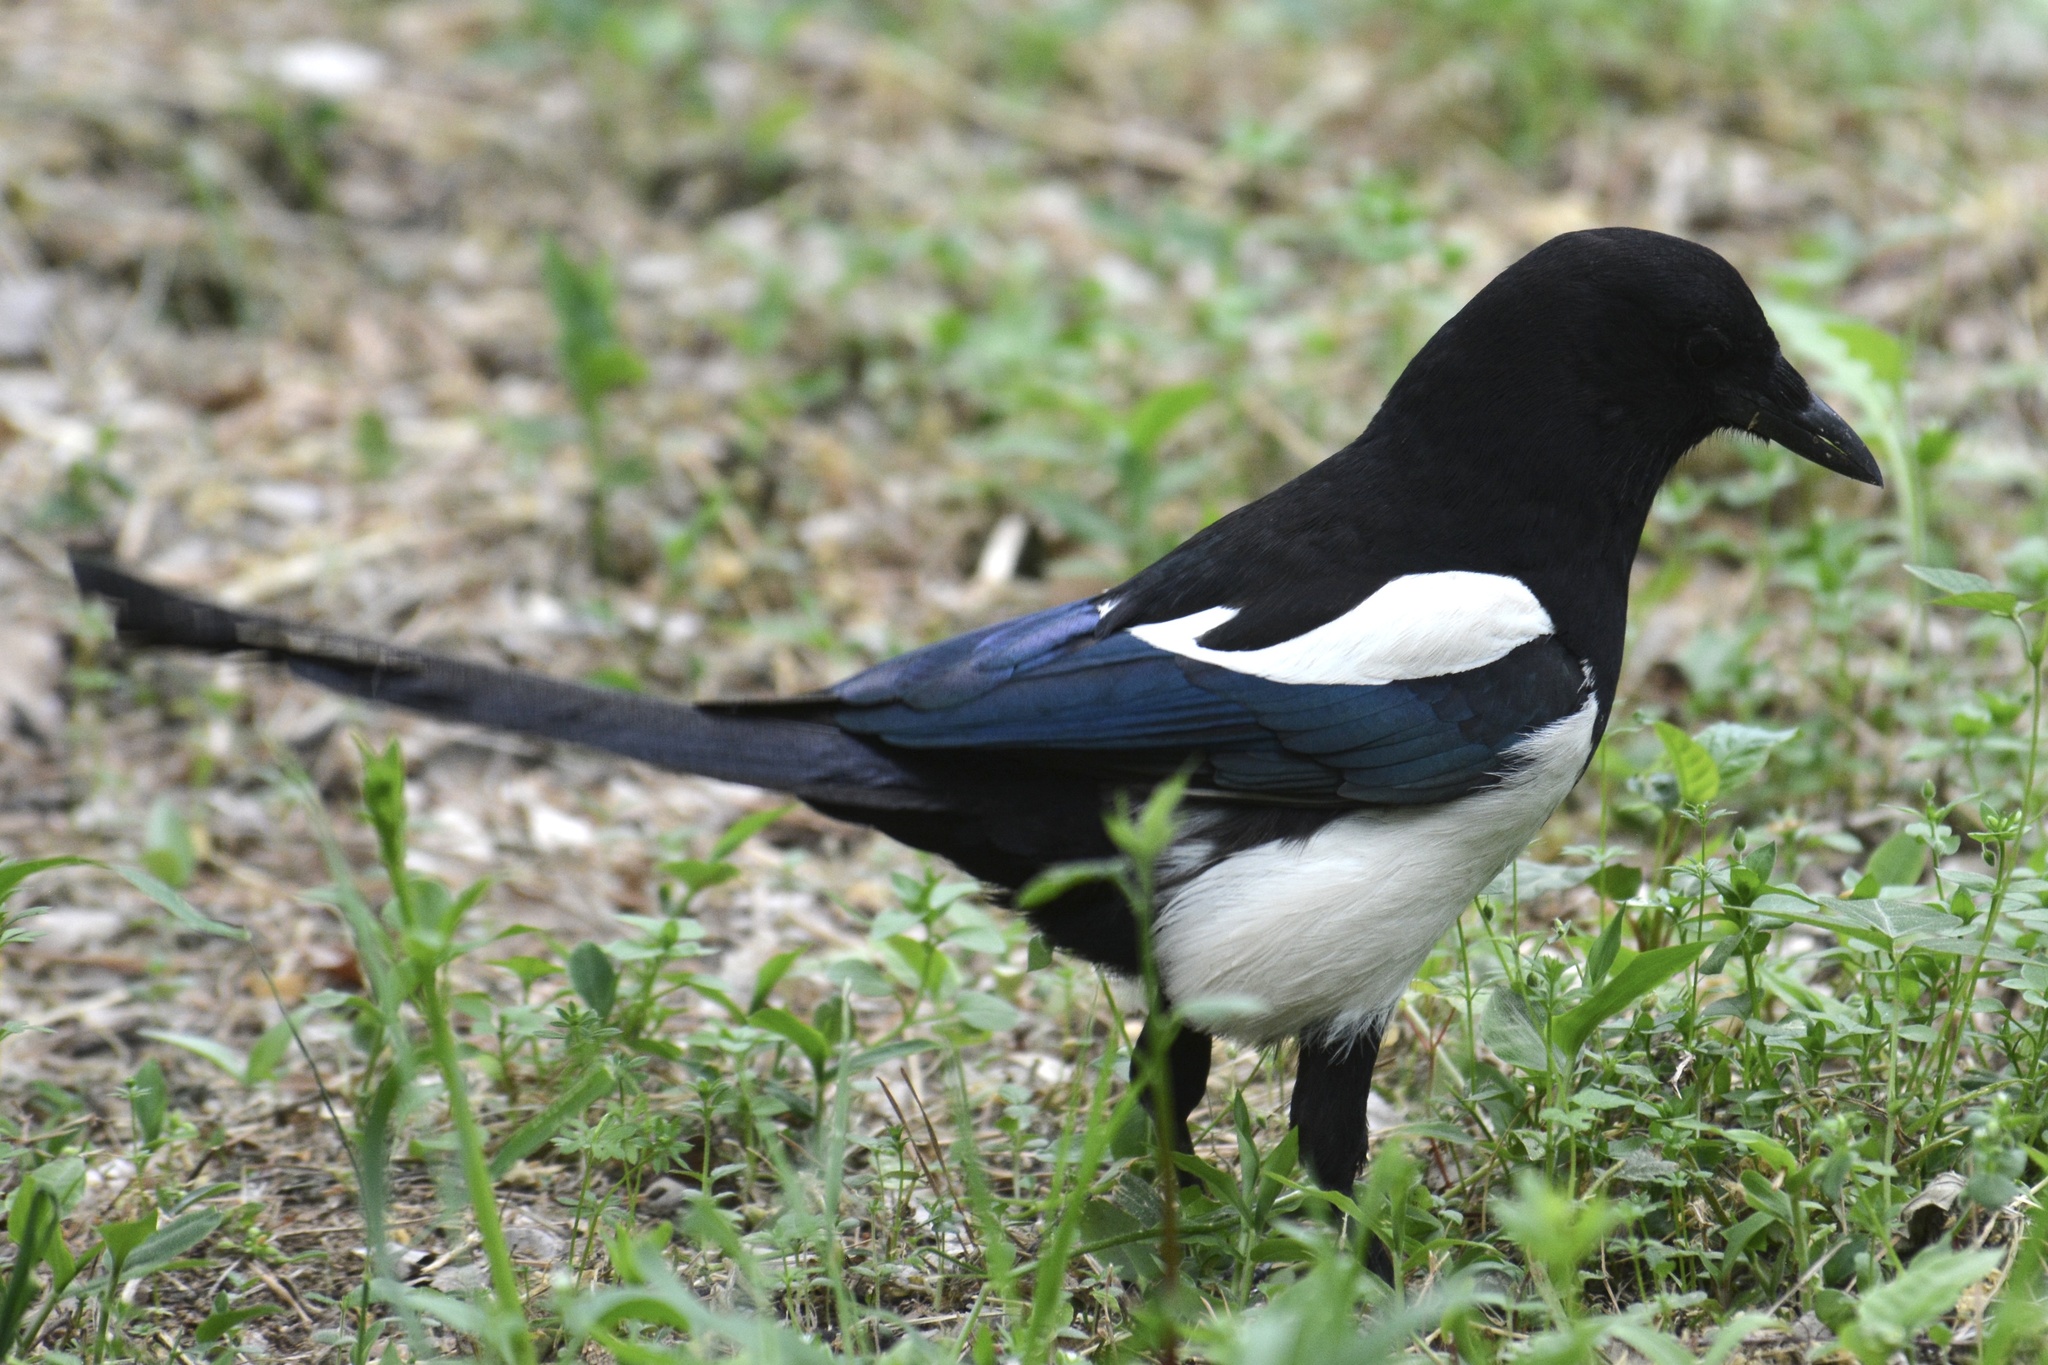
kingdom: Animalia
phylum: Chordata
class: Aves
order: Passeriformes
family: Corvidae
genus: Pica
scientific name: Pica serica
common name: Oriental magpie
